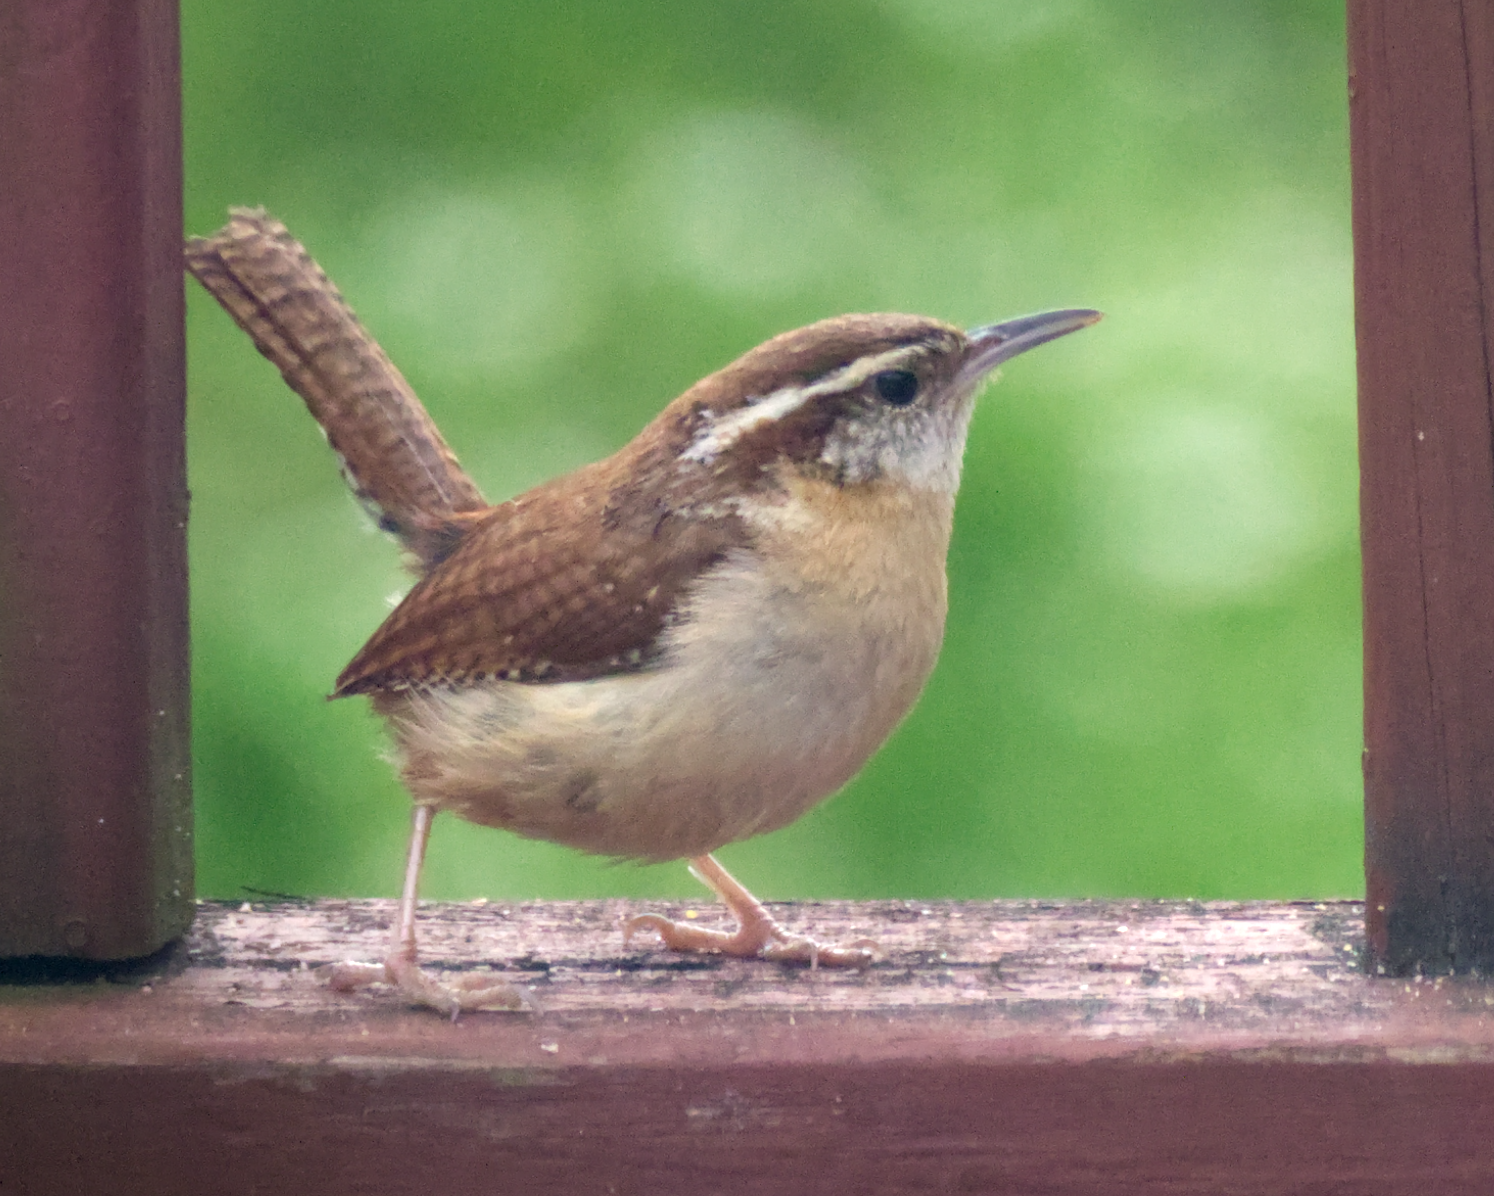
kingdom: Animalia
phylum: Chordata
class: Aves
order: Passeriformes
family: Troglodytidae
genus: Thryothorus
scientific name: Thryothorus ludovicianus
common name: Carolina wren
